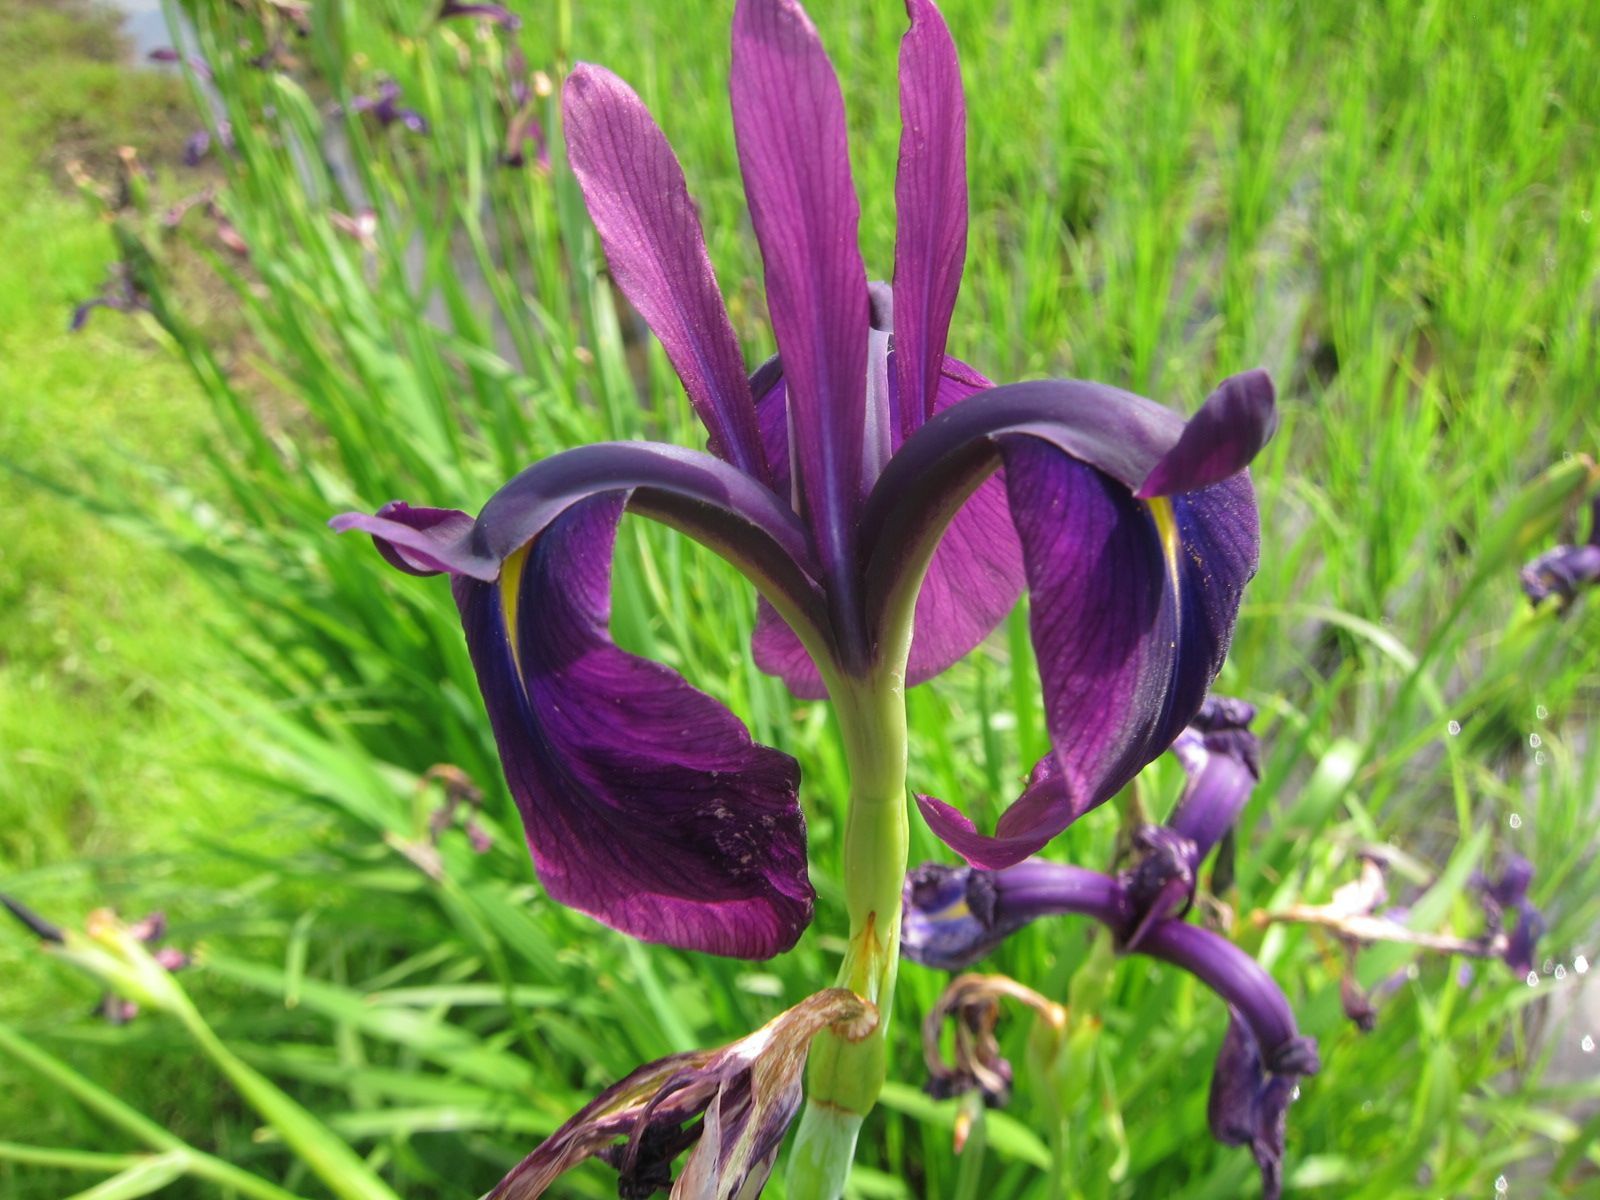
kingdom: Plantae
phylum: Tracheophyta
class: Liliopsida
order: Asparagales
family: Iridaceae
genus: Iris
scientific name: Iris ensata
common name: Beaked iris
